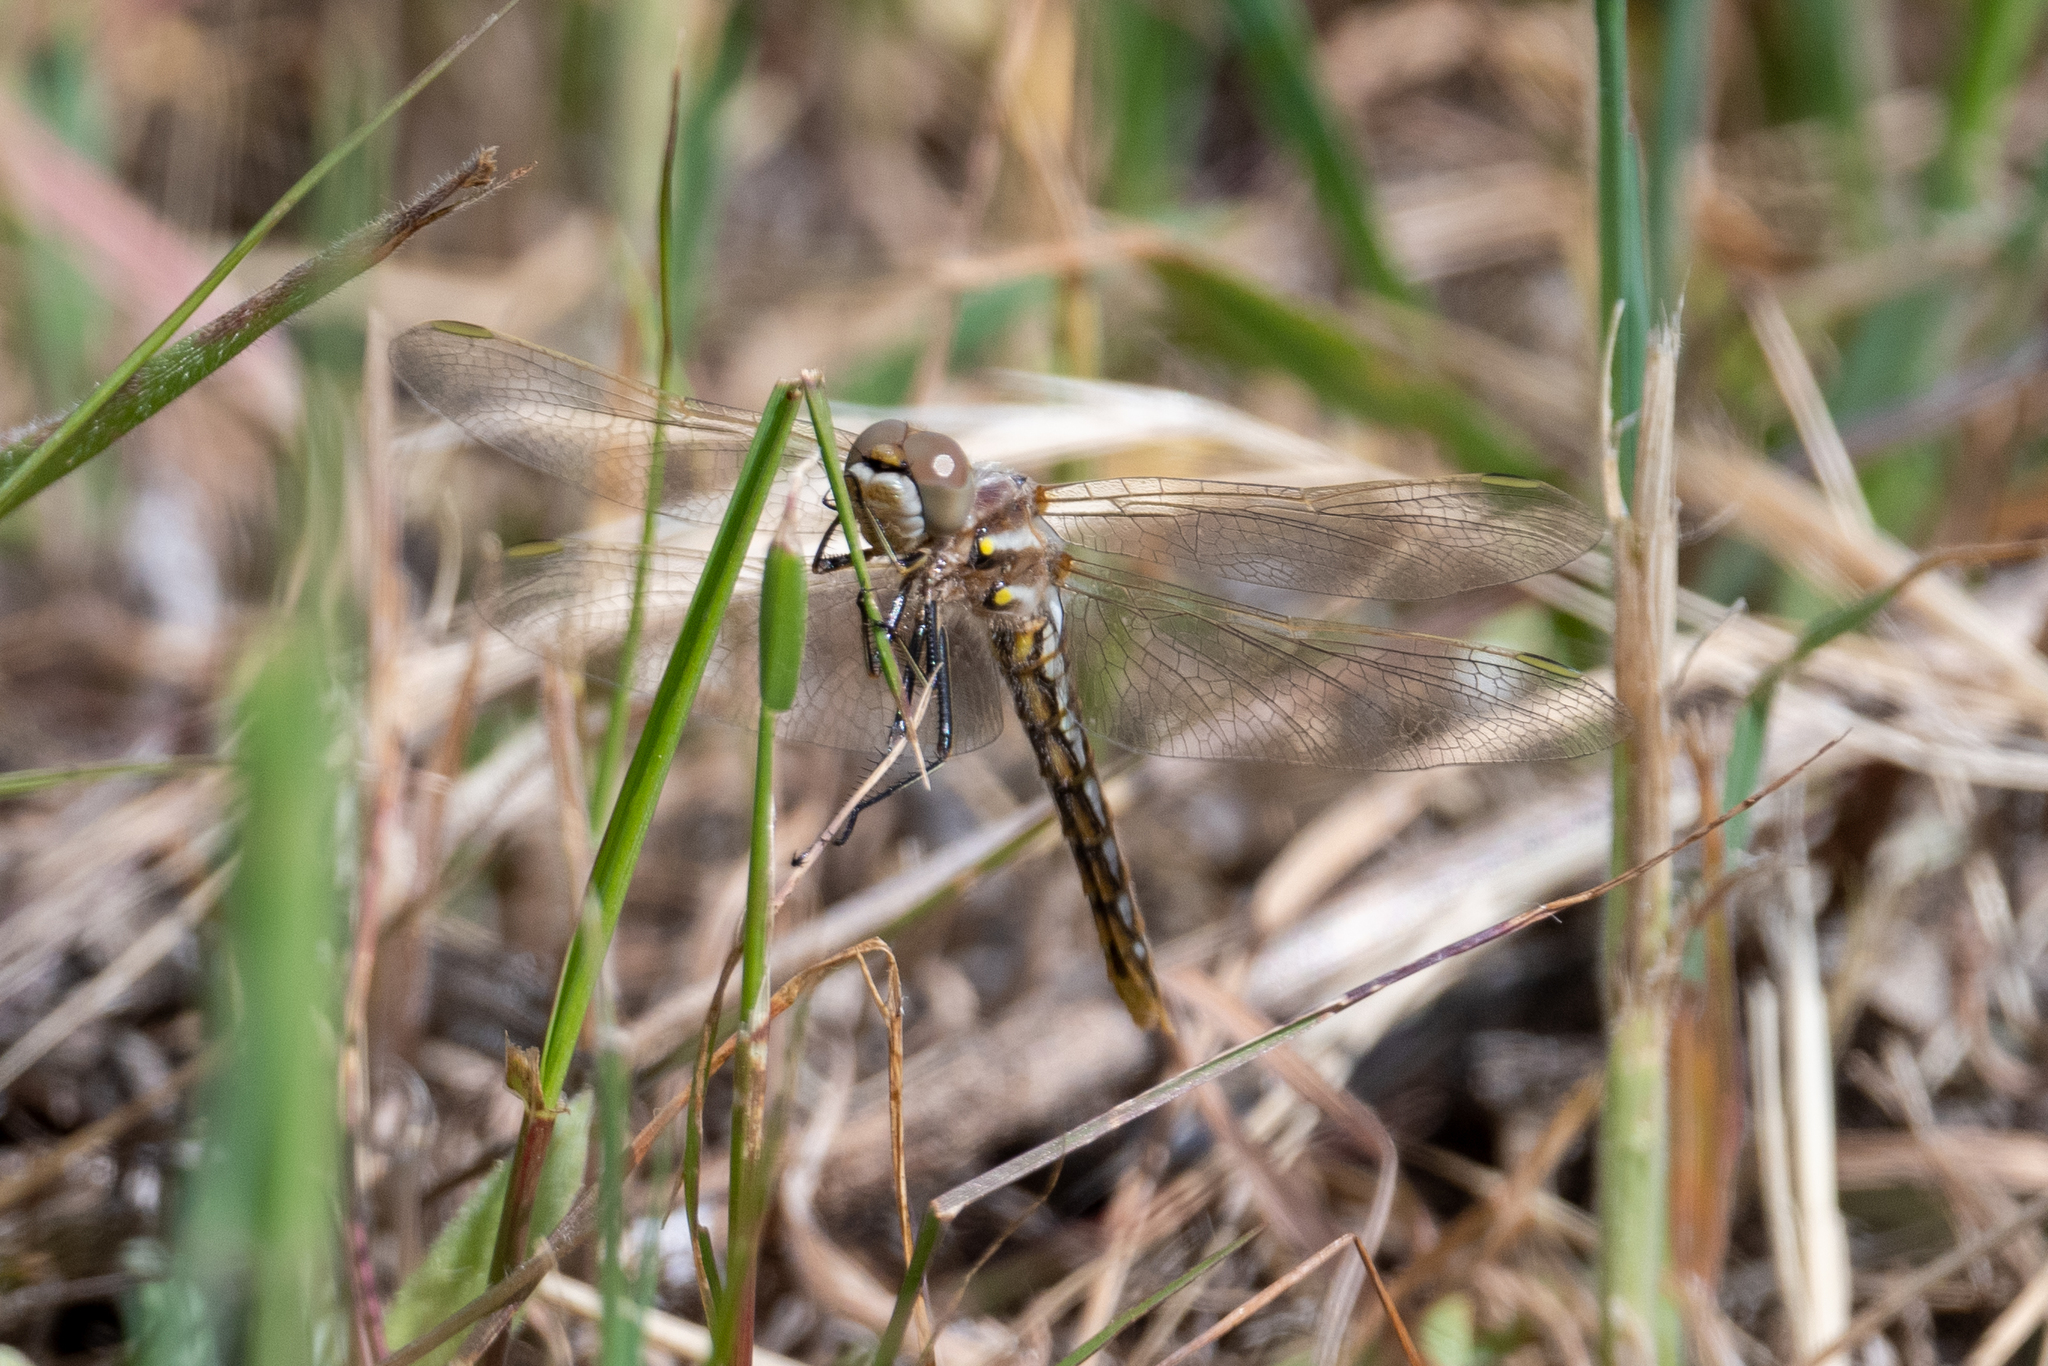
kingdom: Animalia
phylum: Arthropoda
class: Insecta
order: Odonata
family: Libellulidae
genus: Sympetrum
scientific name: Sympetrum corruptum
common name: Variegated meadowhawk
